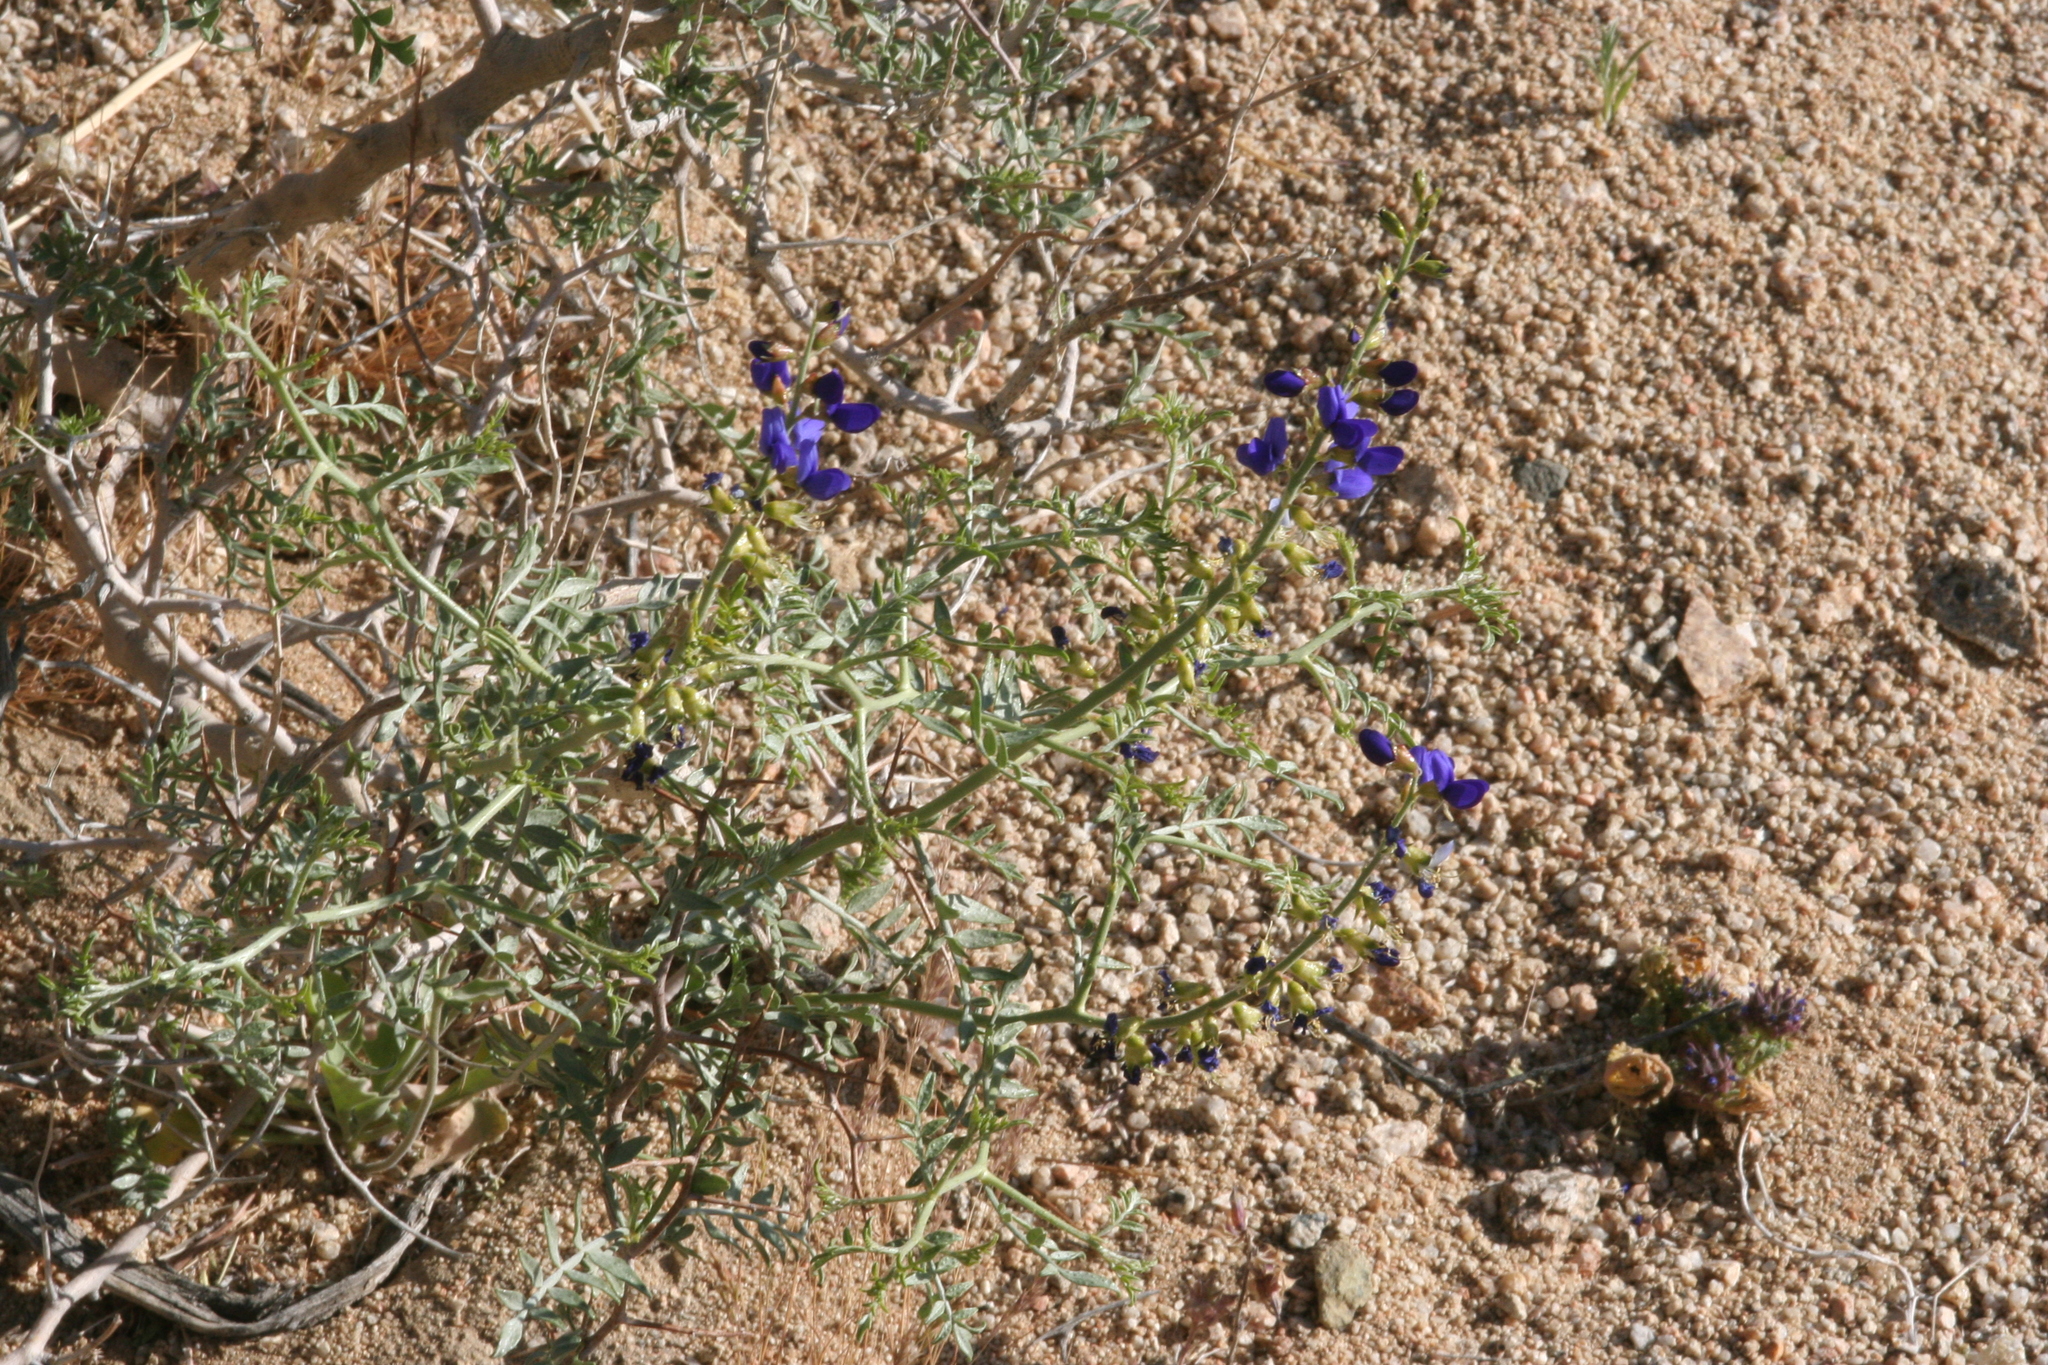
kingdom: Plantae
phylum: Tracheophyta
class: Magnoliopsida
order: Fabales
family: Fabaceae
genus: Psorothamnus
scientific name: Psorothamnus arborescens
